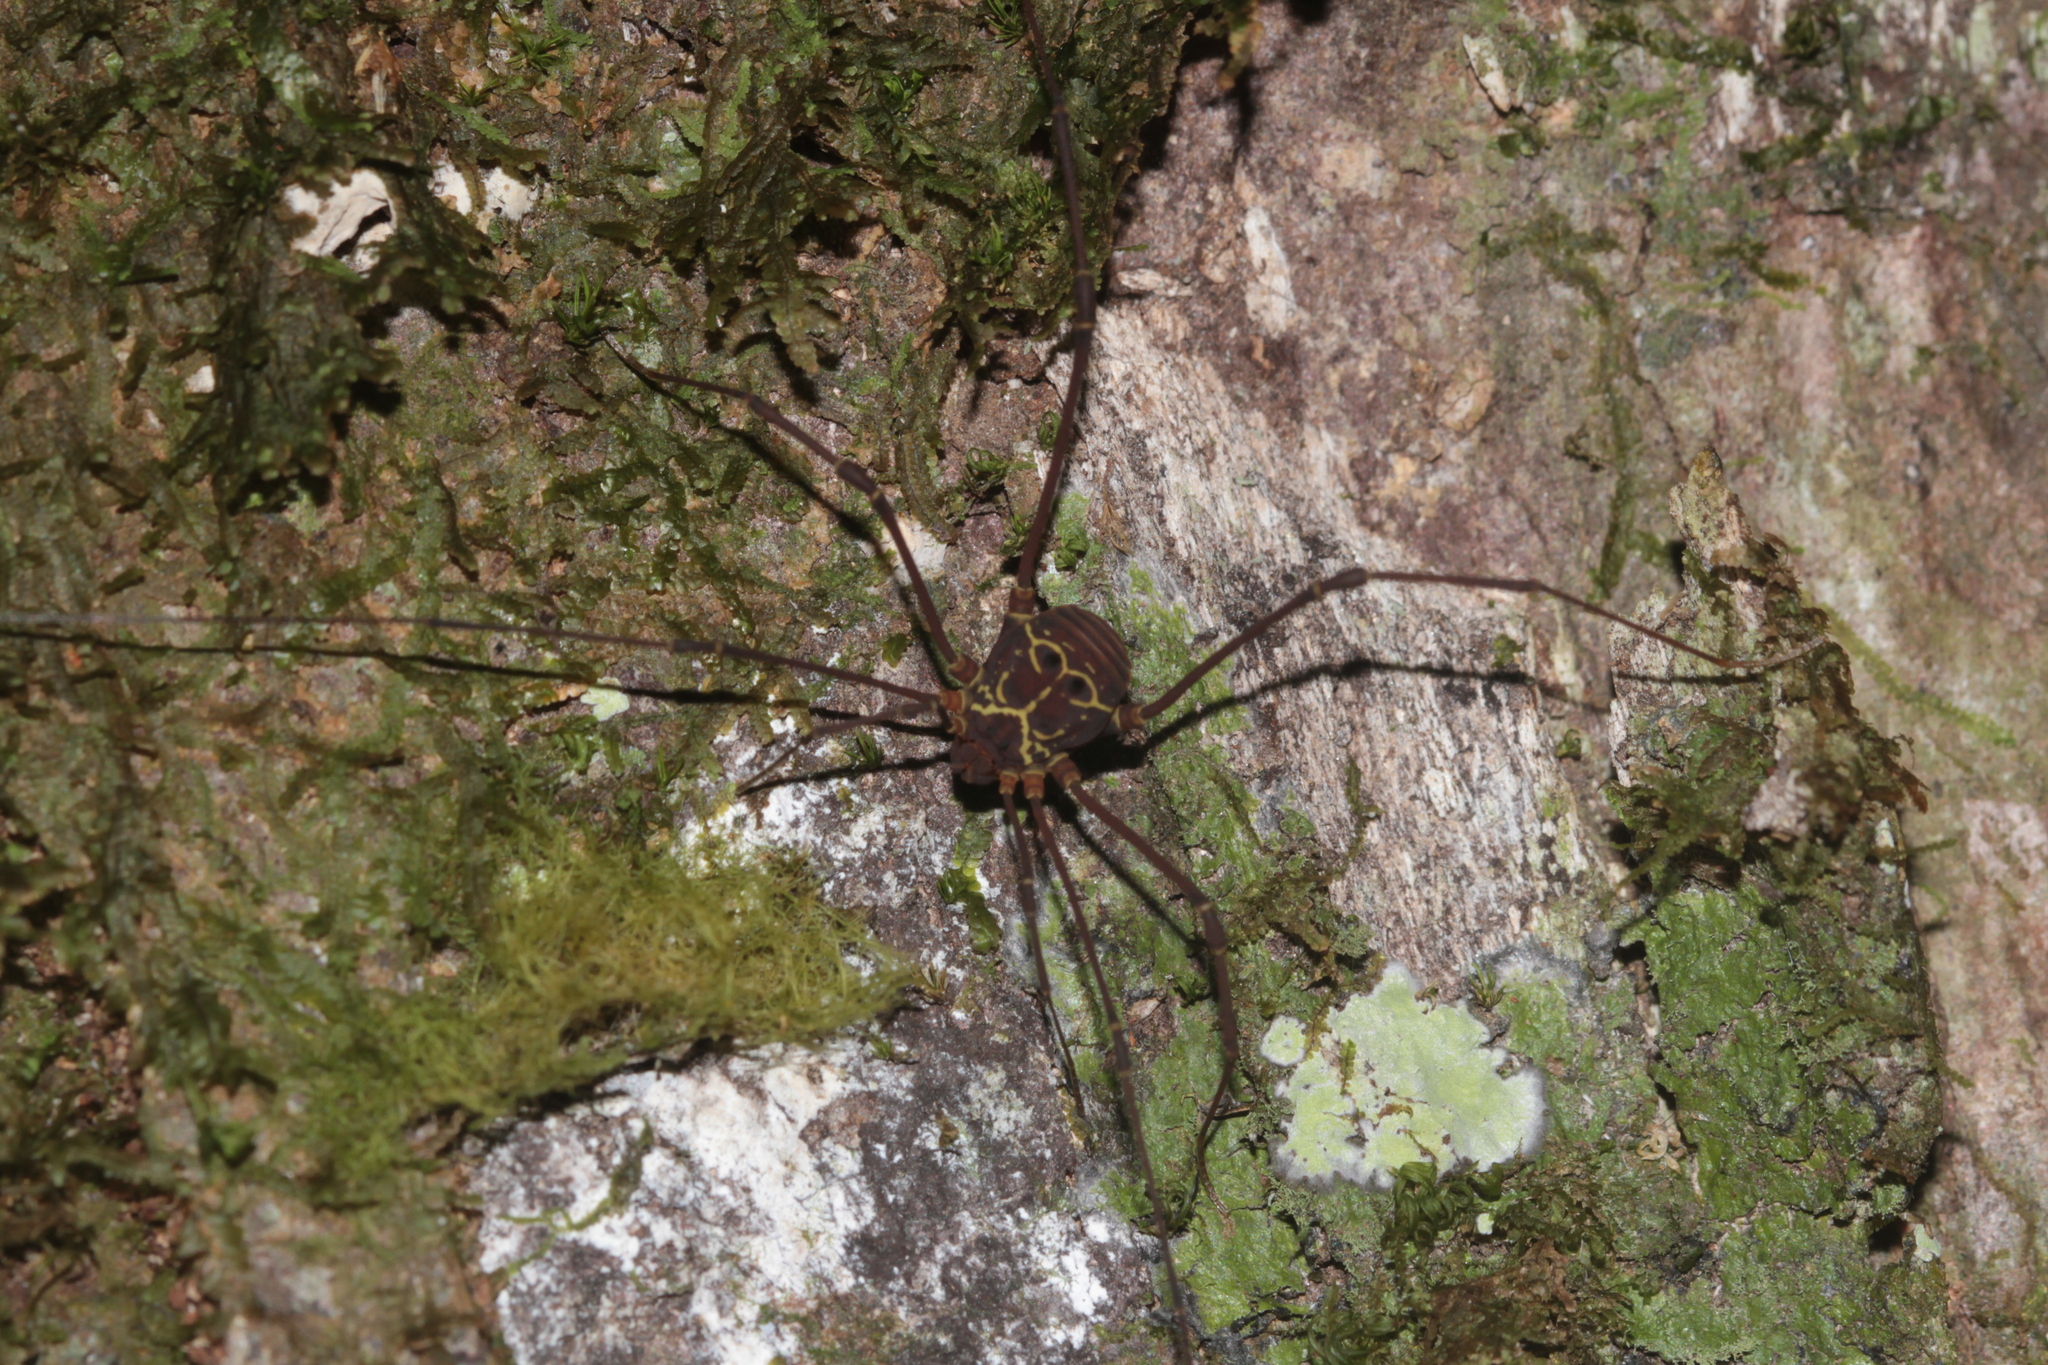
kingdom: Animalia
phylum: Arthropoda
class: Arachnida
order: Opiliones
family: Cosmetidae
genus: Paecilaema
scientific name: Paecilaema curvipes
